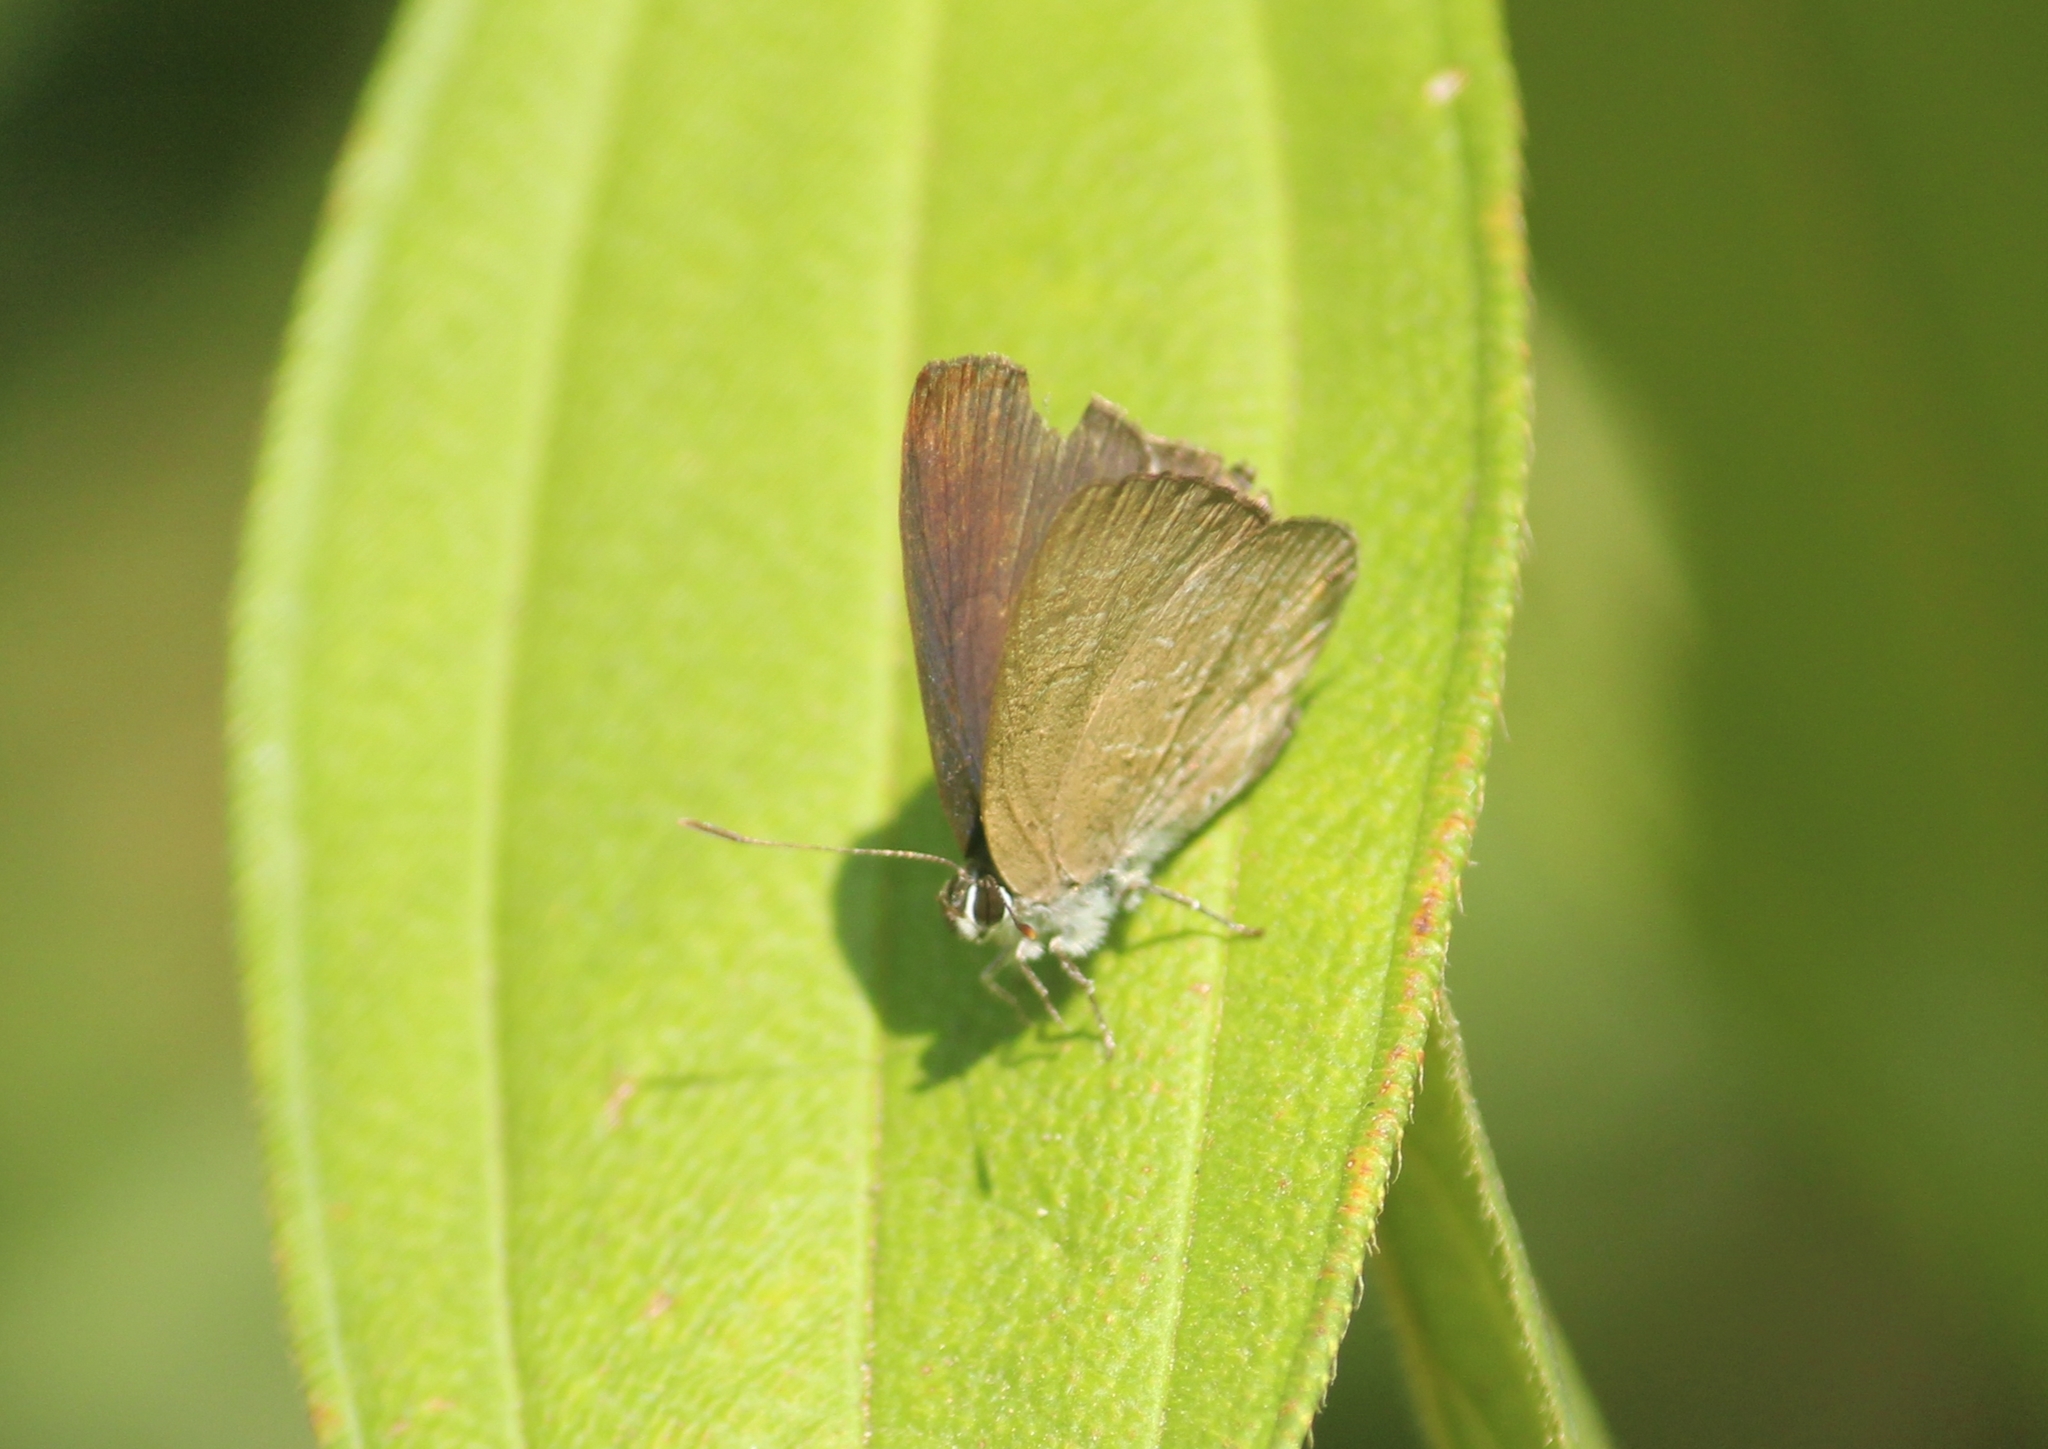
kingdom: Animalia
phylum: Arthropoda
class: Insecta
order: Lepidoptera
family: Lycaenidae
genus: Anthene
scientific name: Anthene emolus
